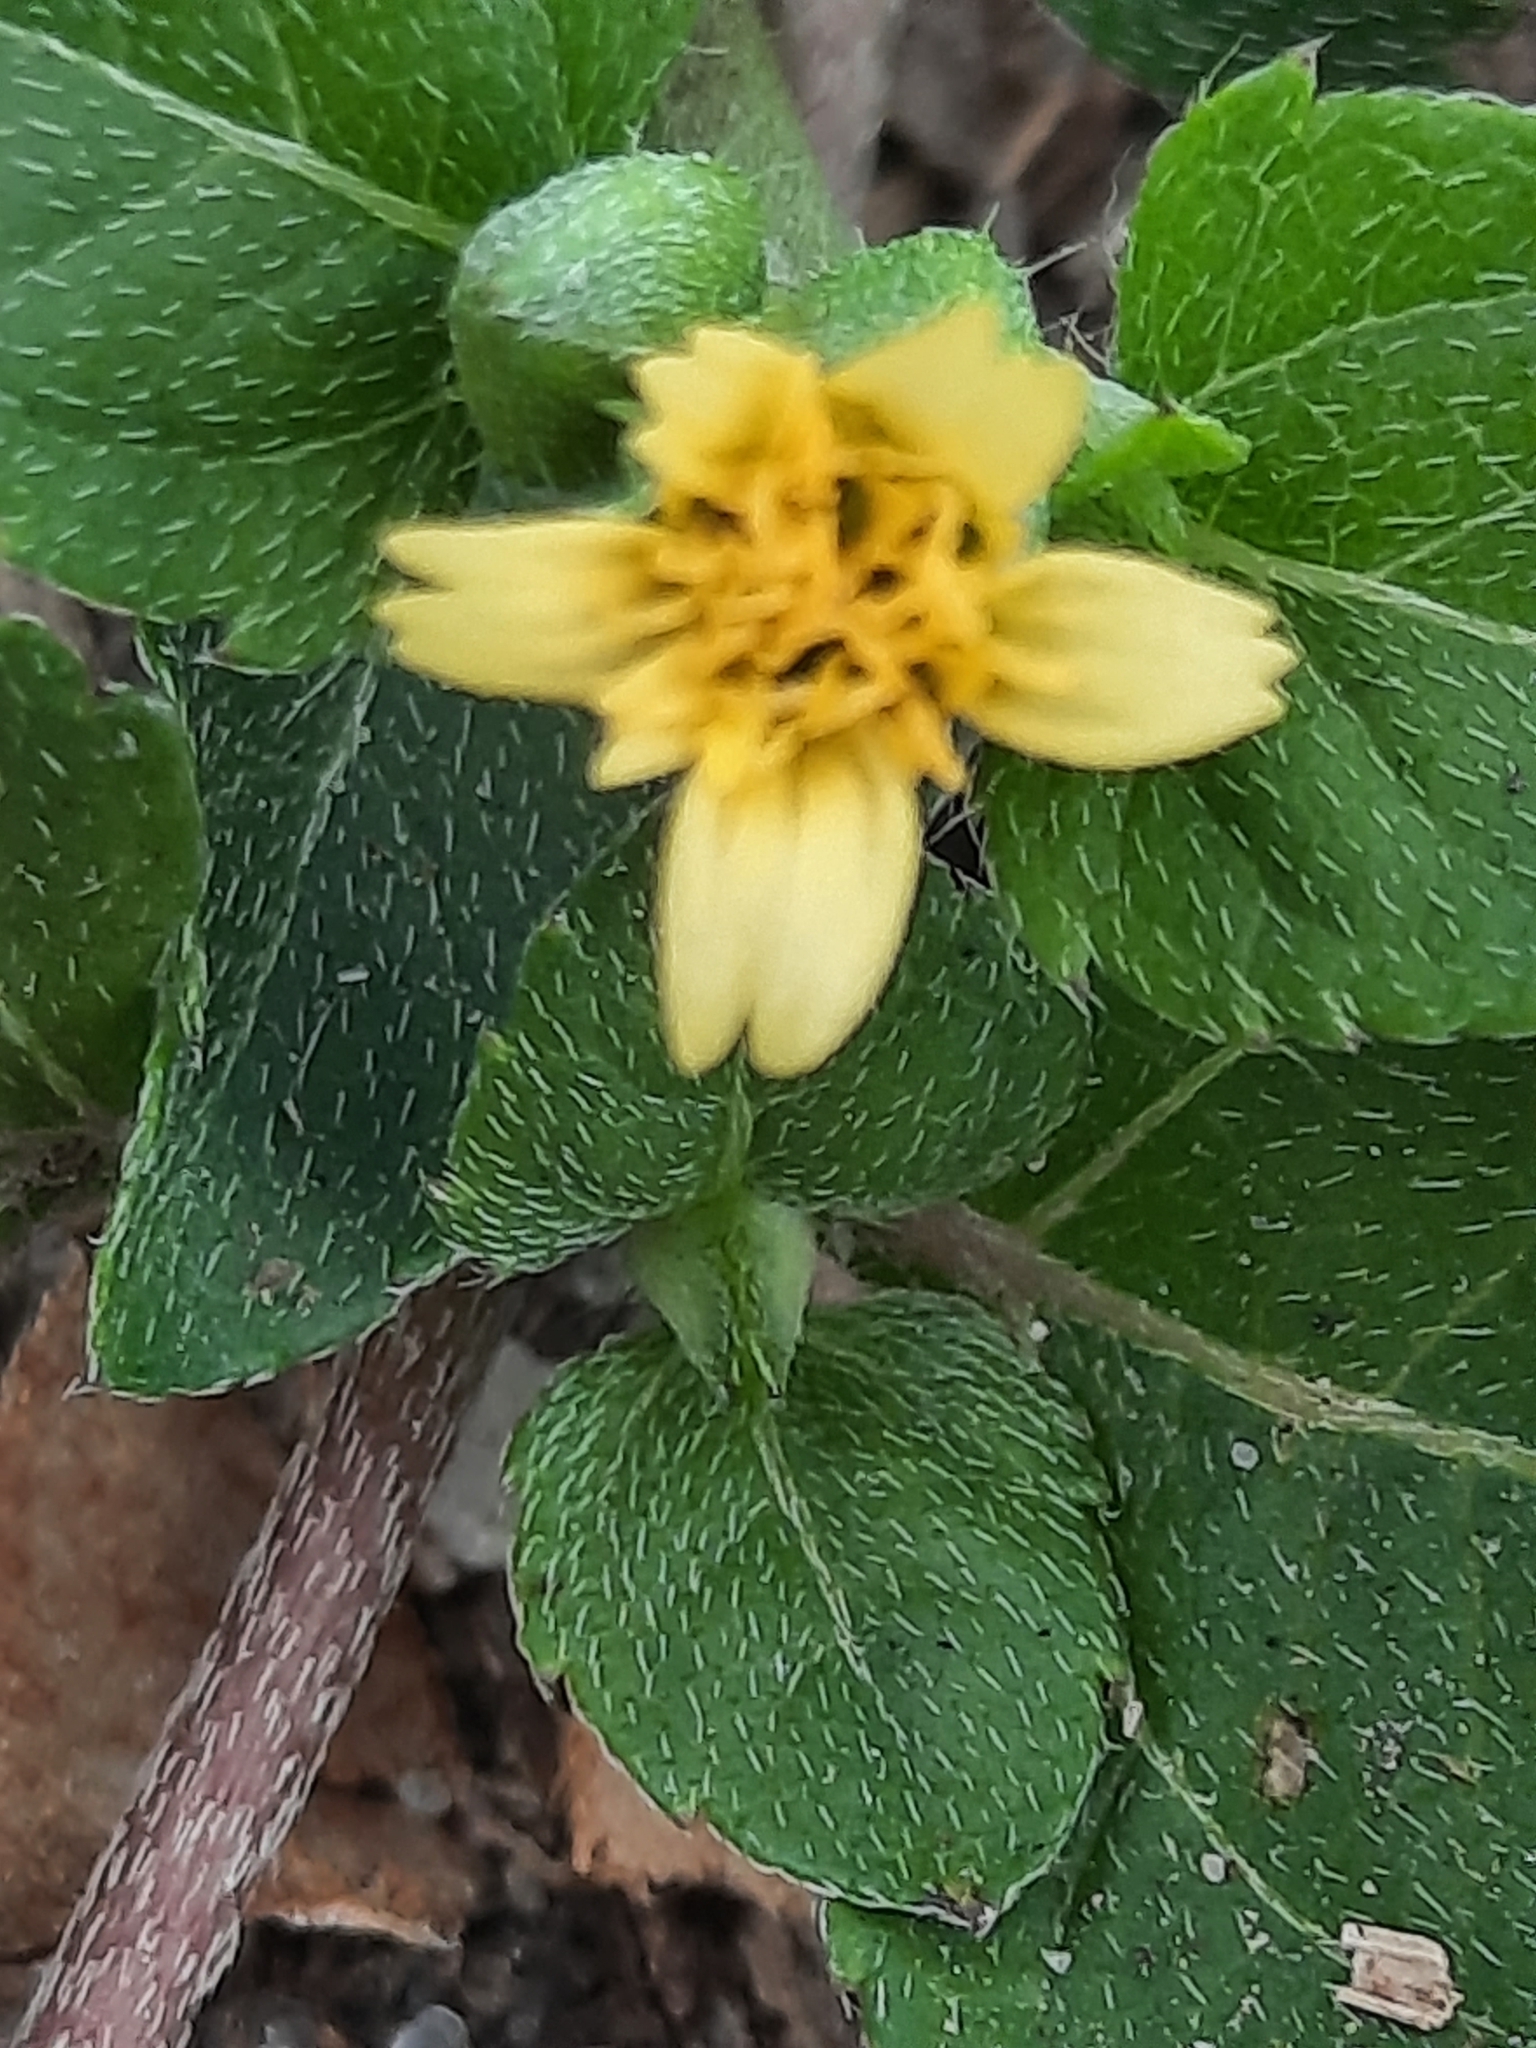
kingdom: Plantae
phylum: Tracheophyta
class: Magnoliopsida
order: Asterales
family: Asteraceae
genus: Calyptocarpus
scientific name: Calyptocarpus vialis
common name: Straggler daisy
